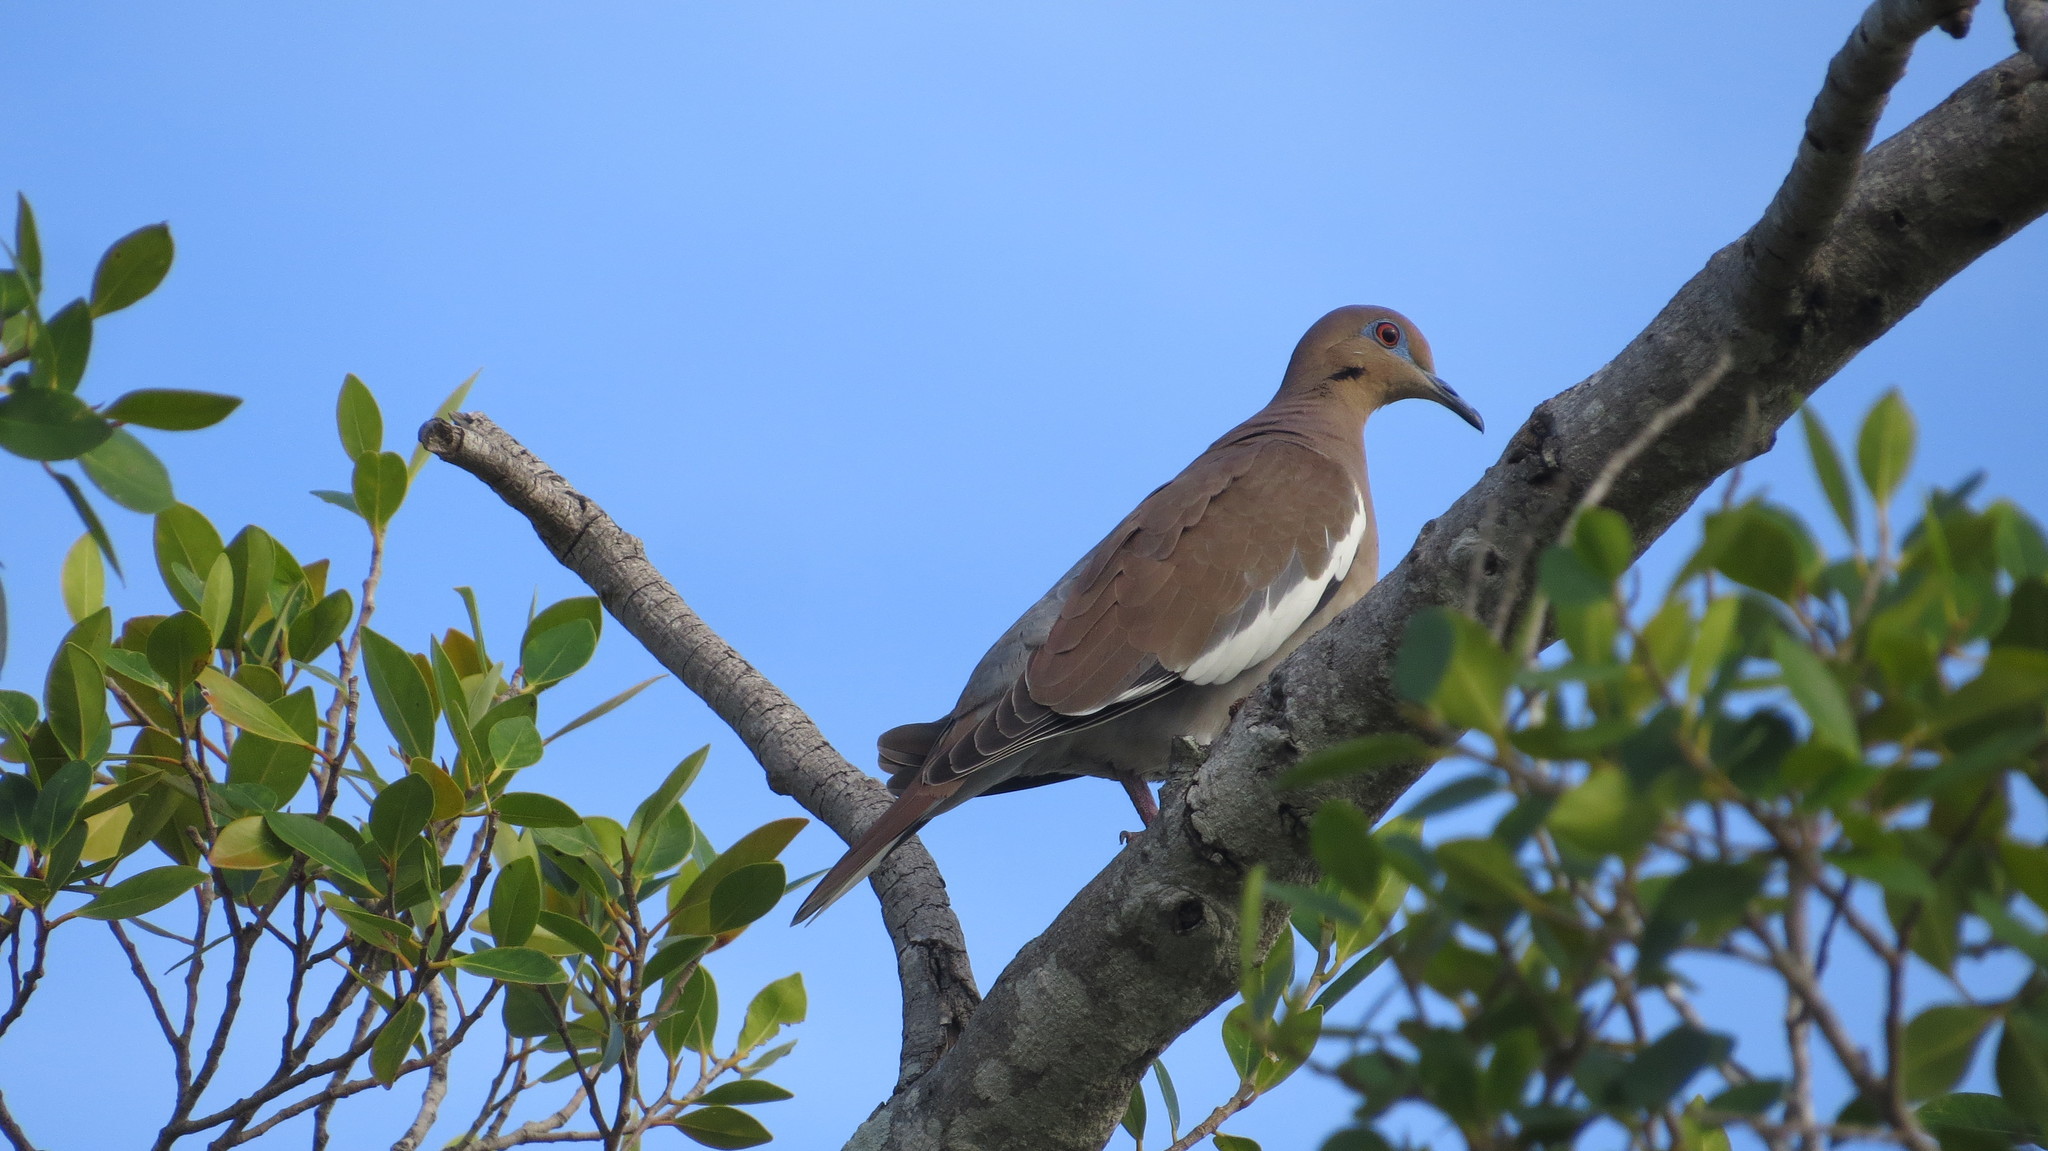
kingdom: Animalia
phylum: Chordata
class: Aves
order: Columbiformes
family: Columbidae
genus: Zenaida
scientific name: Zenaida asiatica
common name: White-winged dove
